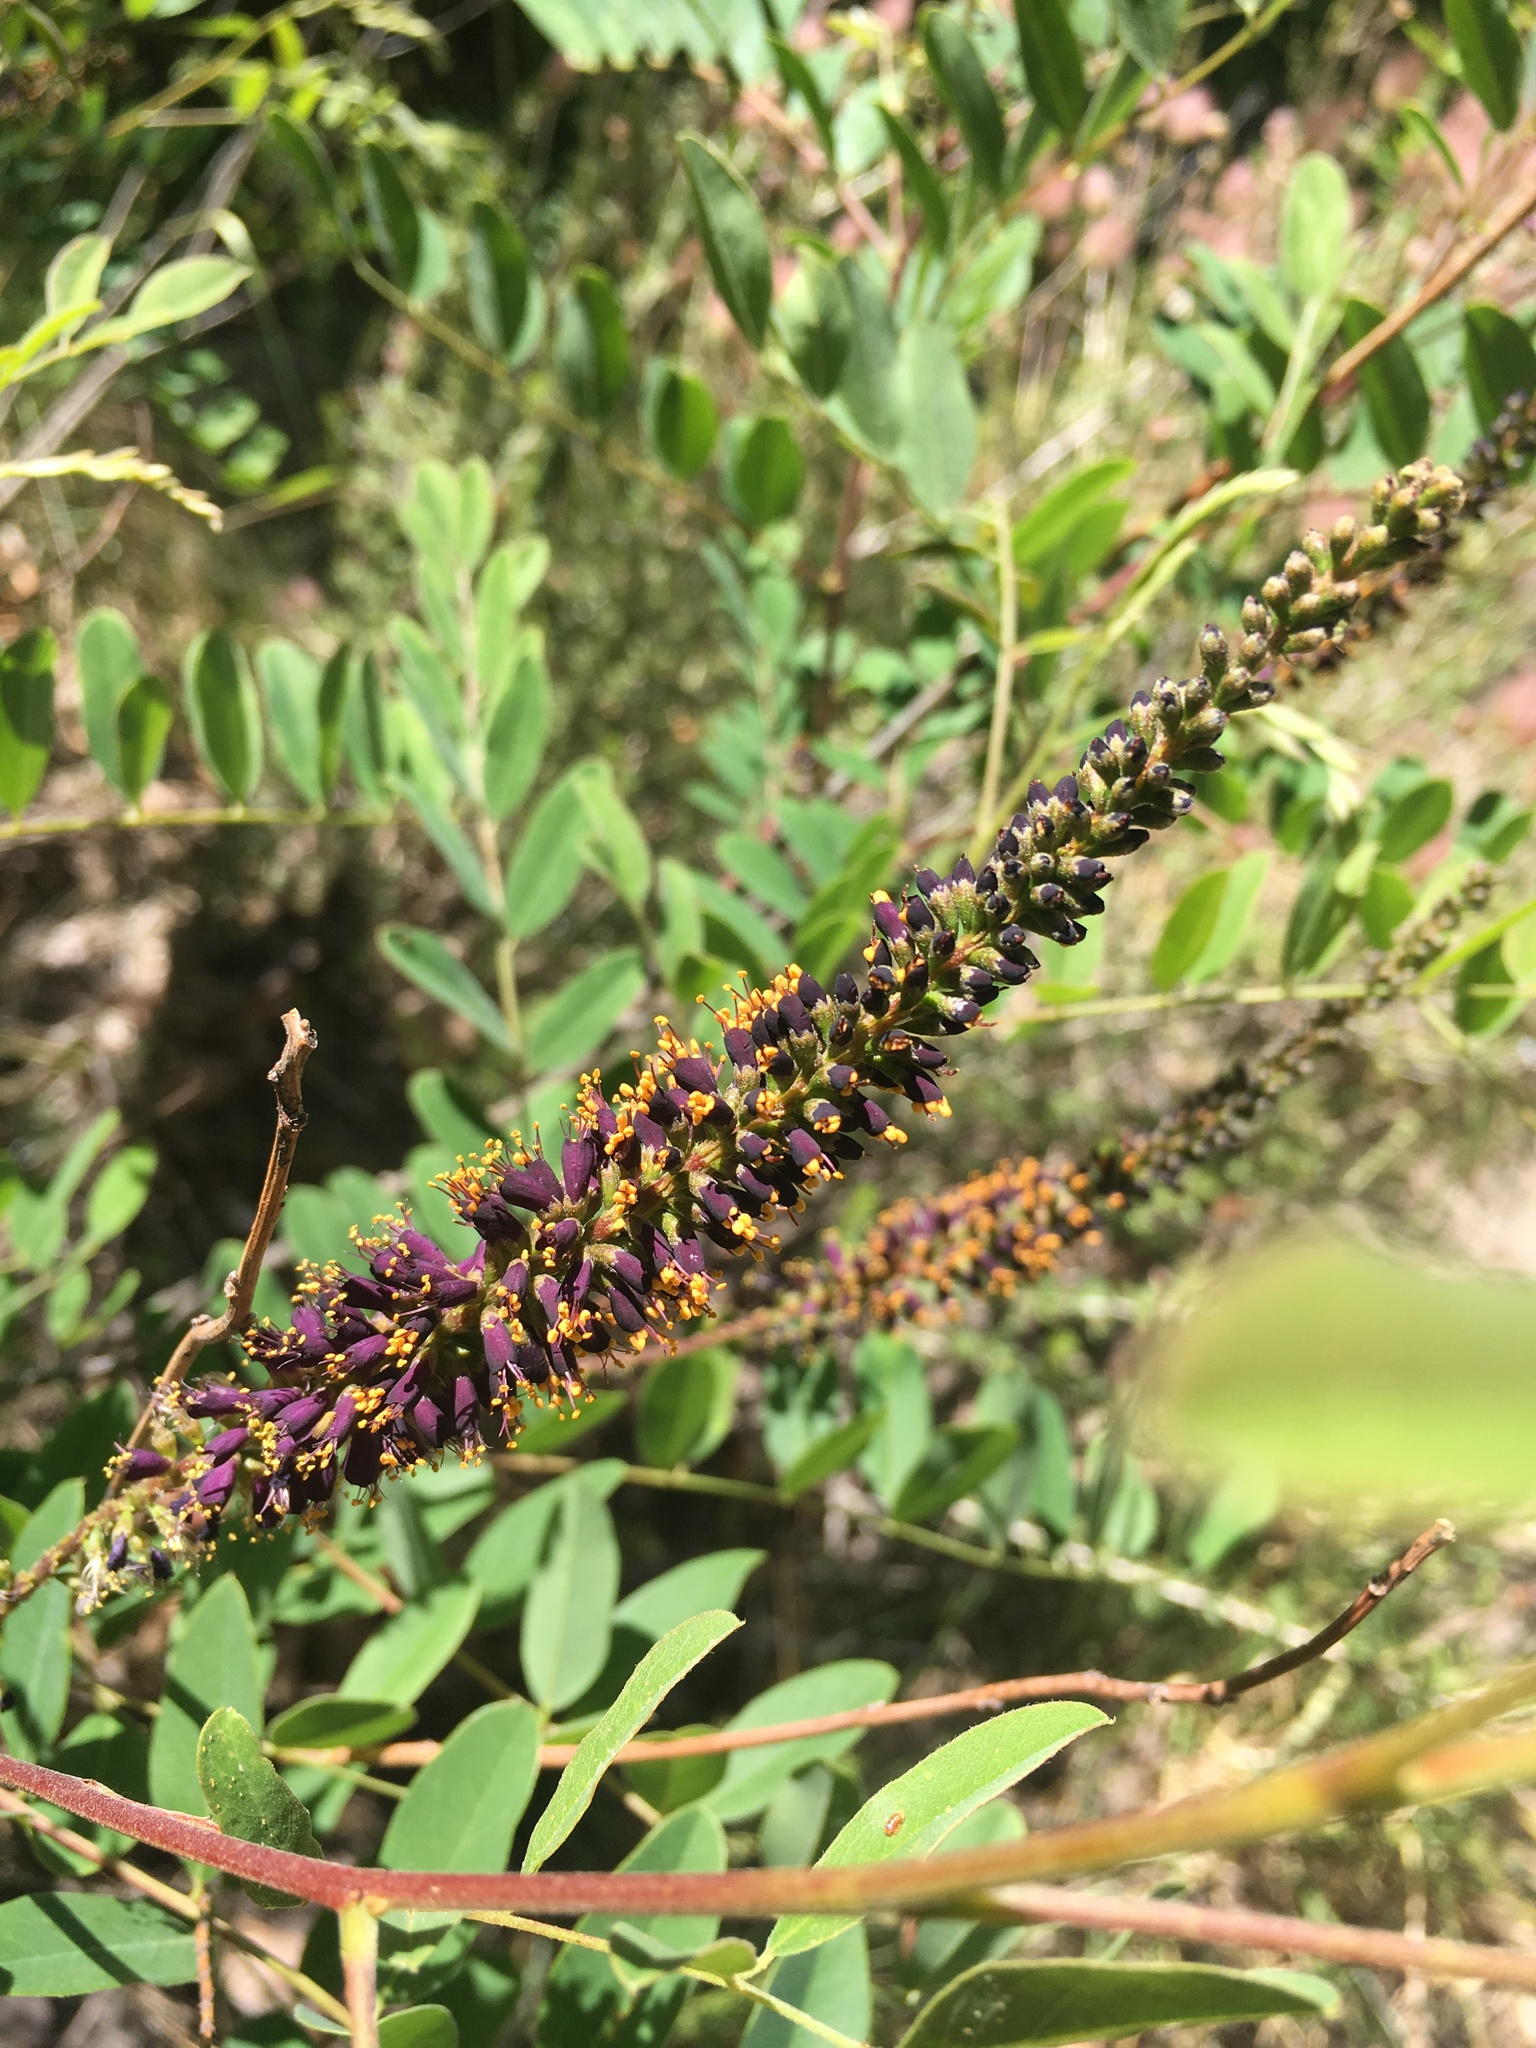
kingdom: Plantae
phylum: Tracheophyta
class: Magnoliopsida
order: Fabales
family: Fabaceae
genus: Amorpha
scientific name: Amorpha fruticosa
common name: False indigo
